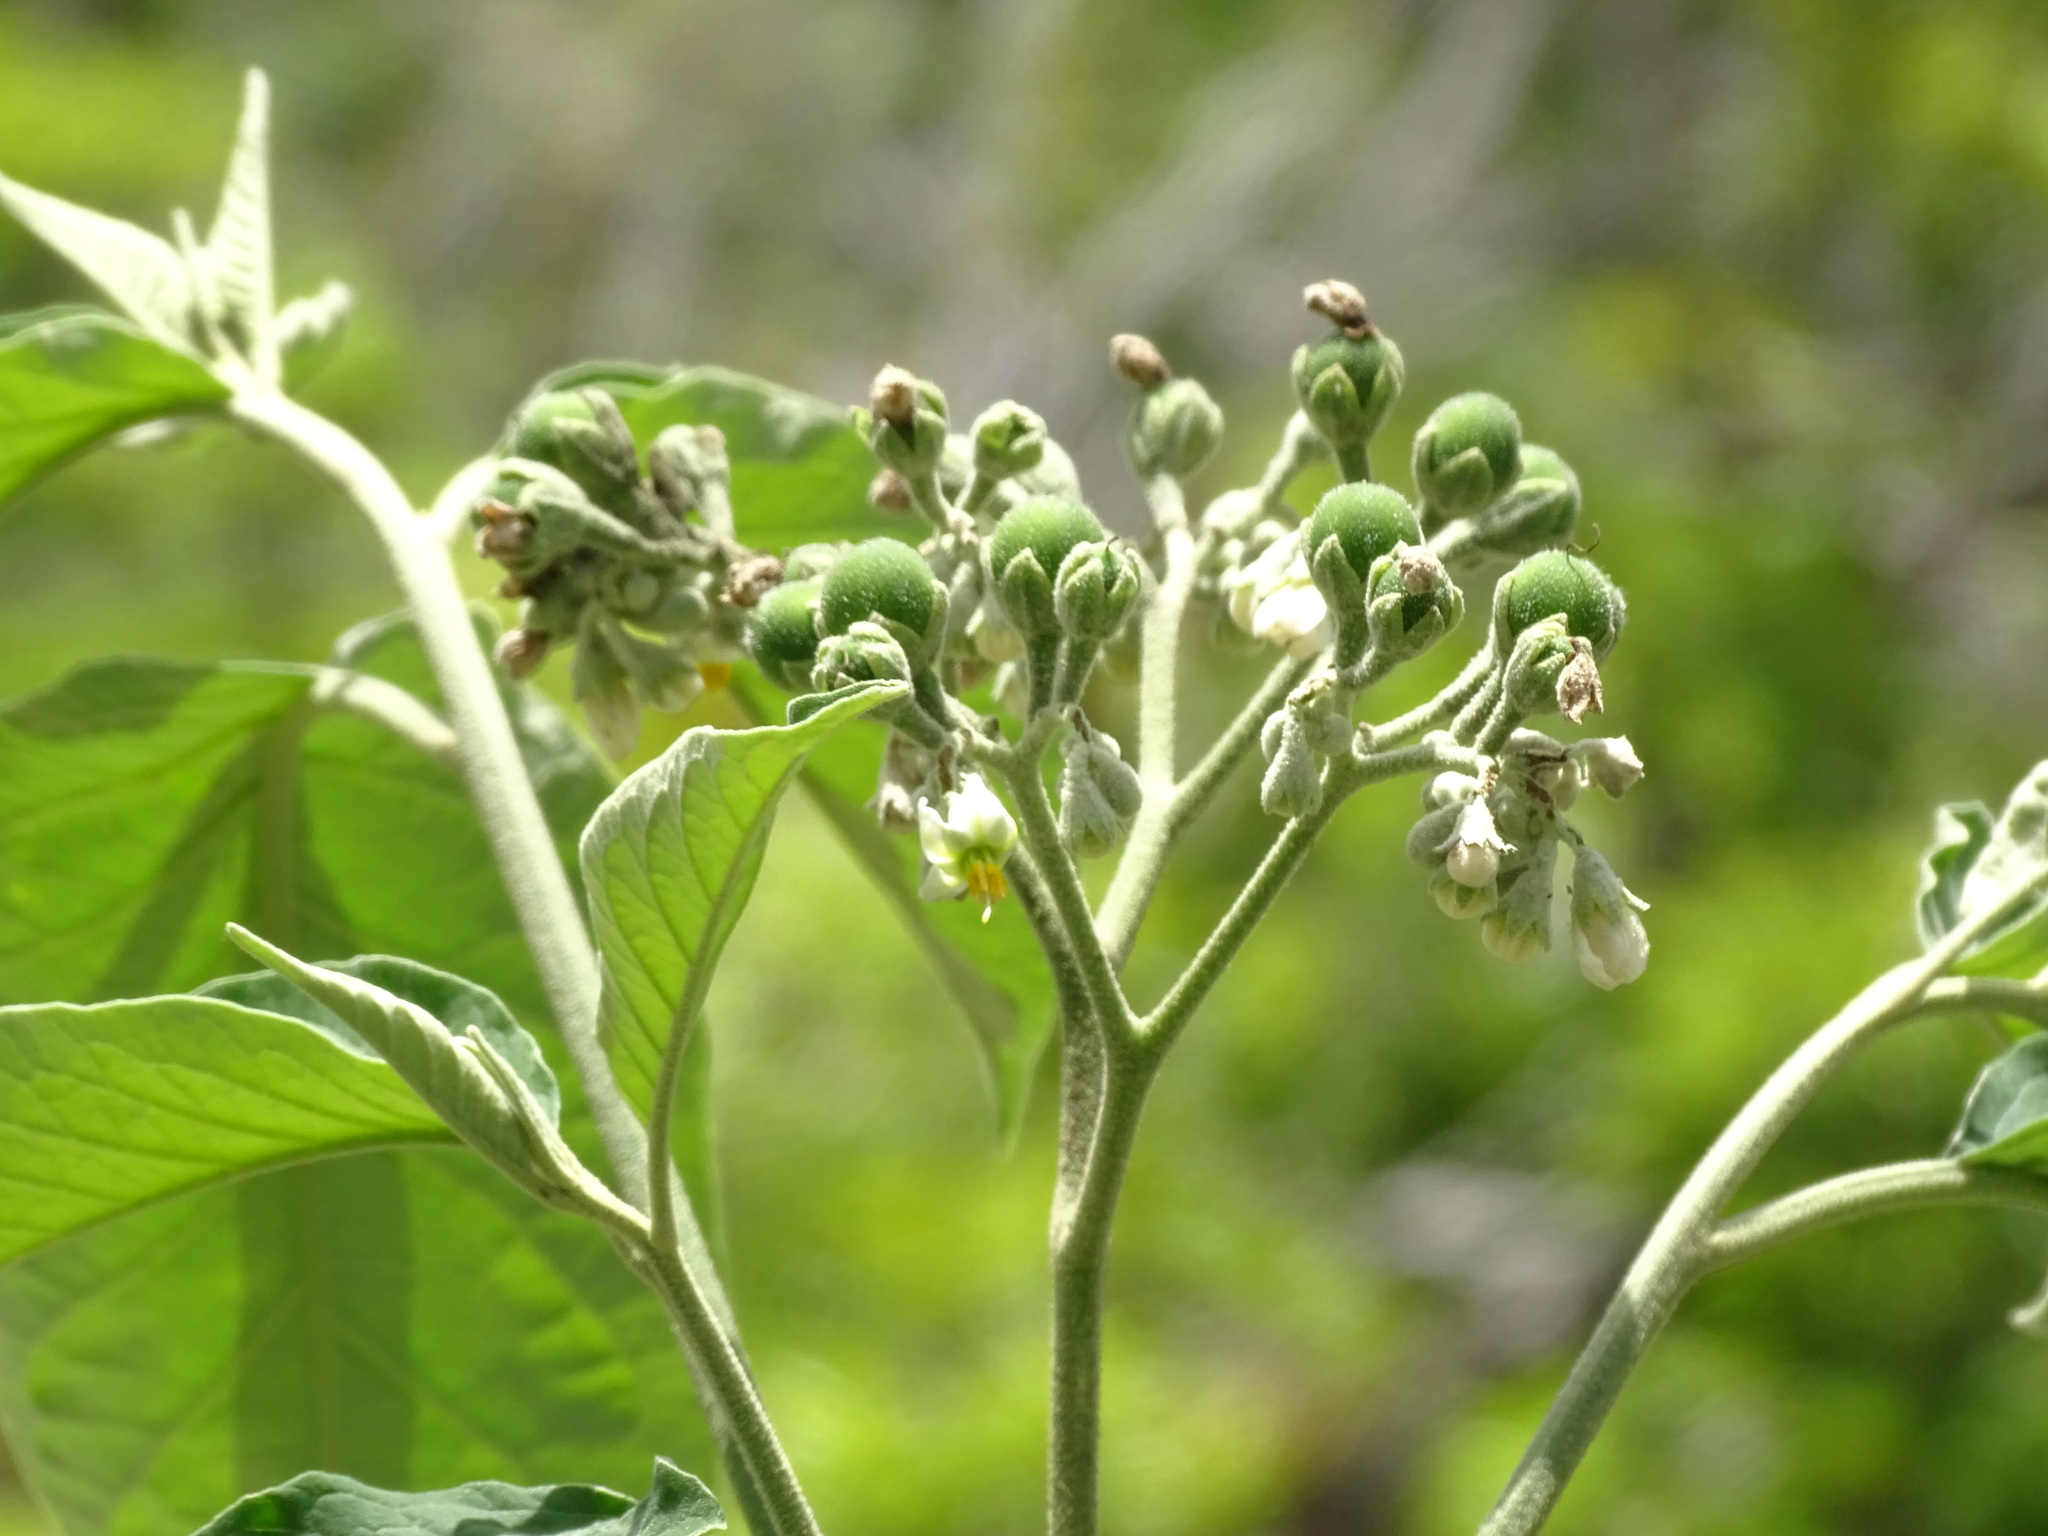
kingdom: Plantae
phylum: Tracheophyta
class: Magnoliopsida
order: Solanales
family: Solanaceae
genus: Solanum
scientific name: Solanum erianthum
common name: Tobacco-tree
